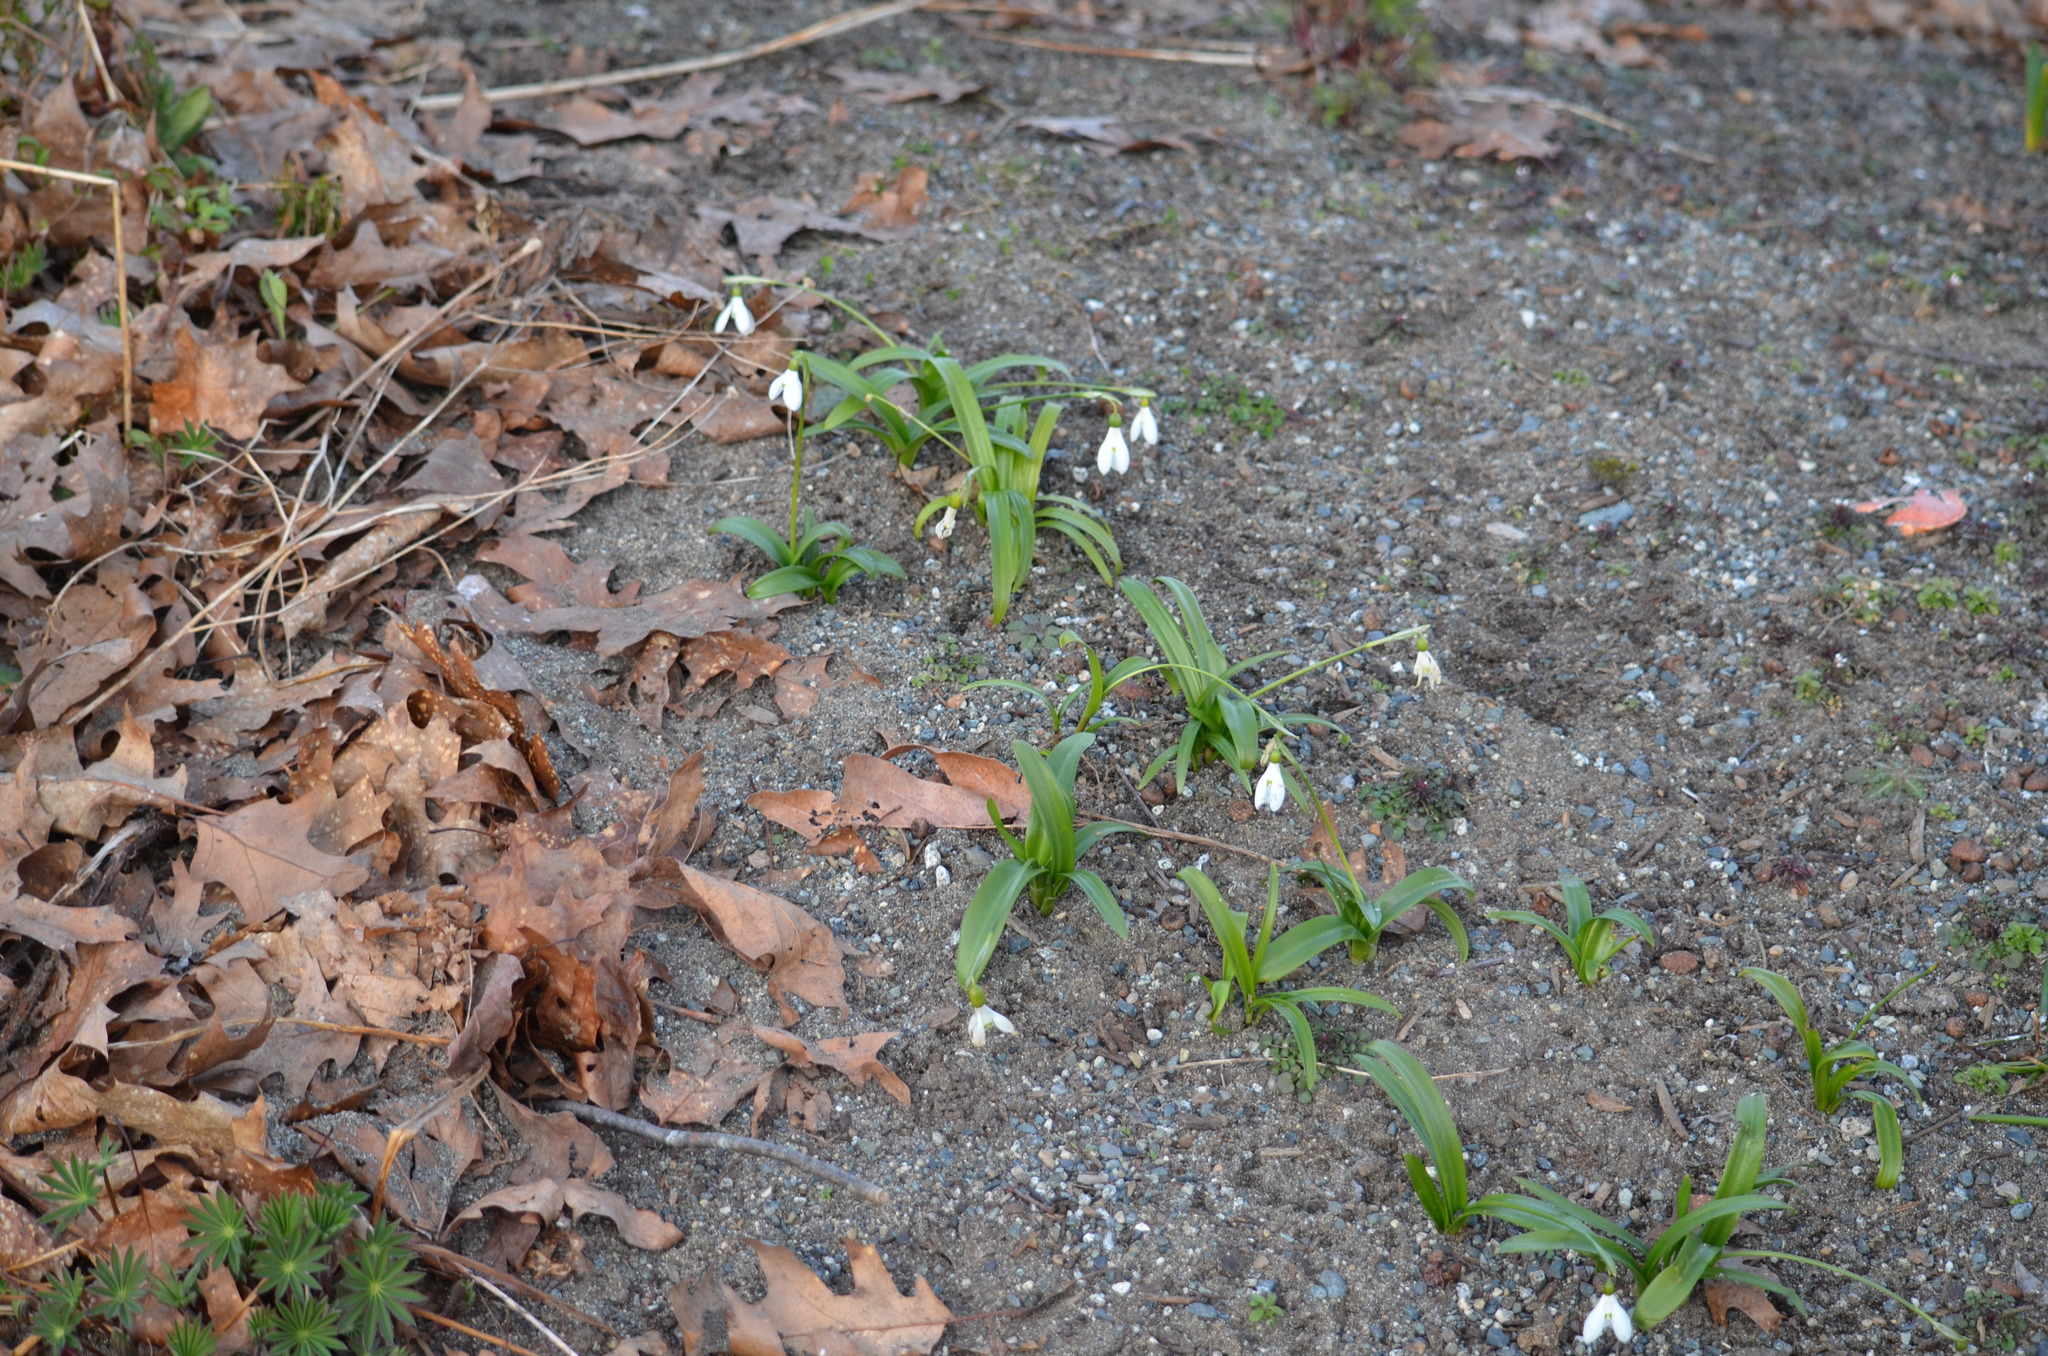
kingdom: Plantae
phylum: Tracheophyta
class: Liliopsida
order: Asparagales
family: Amaryllidaceae
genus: Galanthus
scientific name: Galanthus woronowii
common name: Green snowdrop
